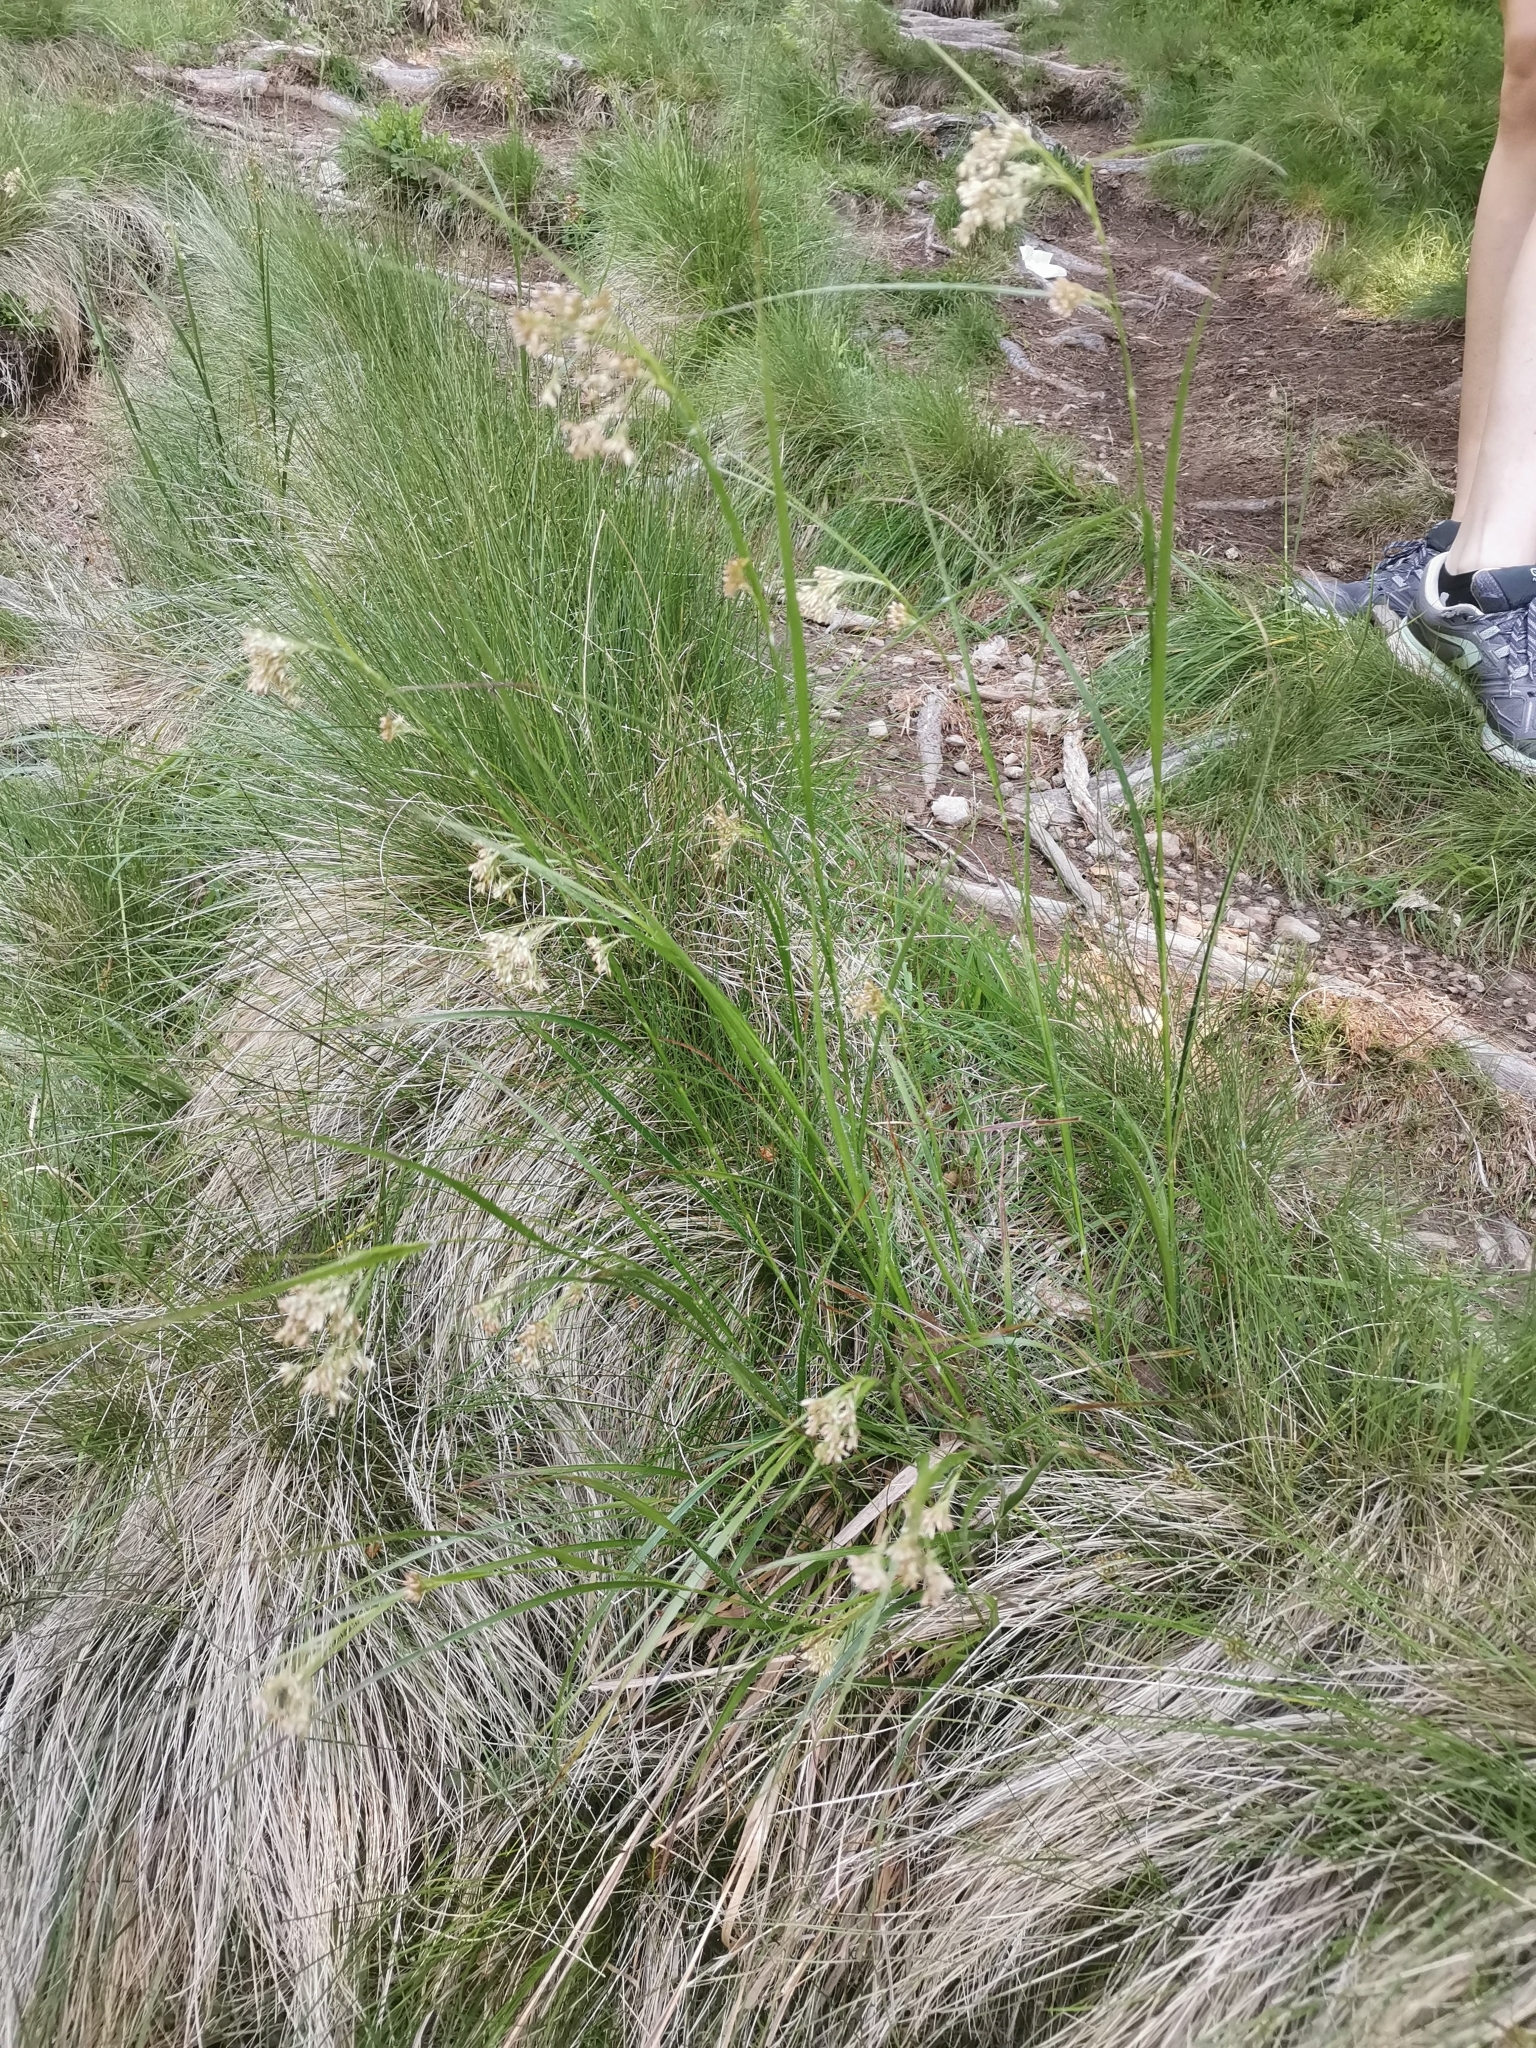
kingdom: Plantae
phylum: Tracheophyta
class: Liliopsida
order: Poales
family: Juncaceae
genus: Luzula
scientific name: Luzula luzuloides
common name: White wood-rush
